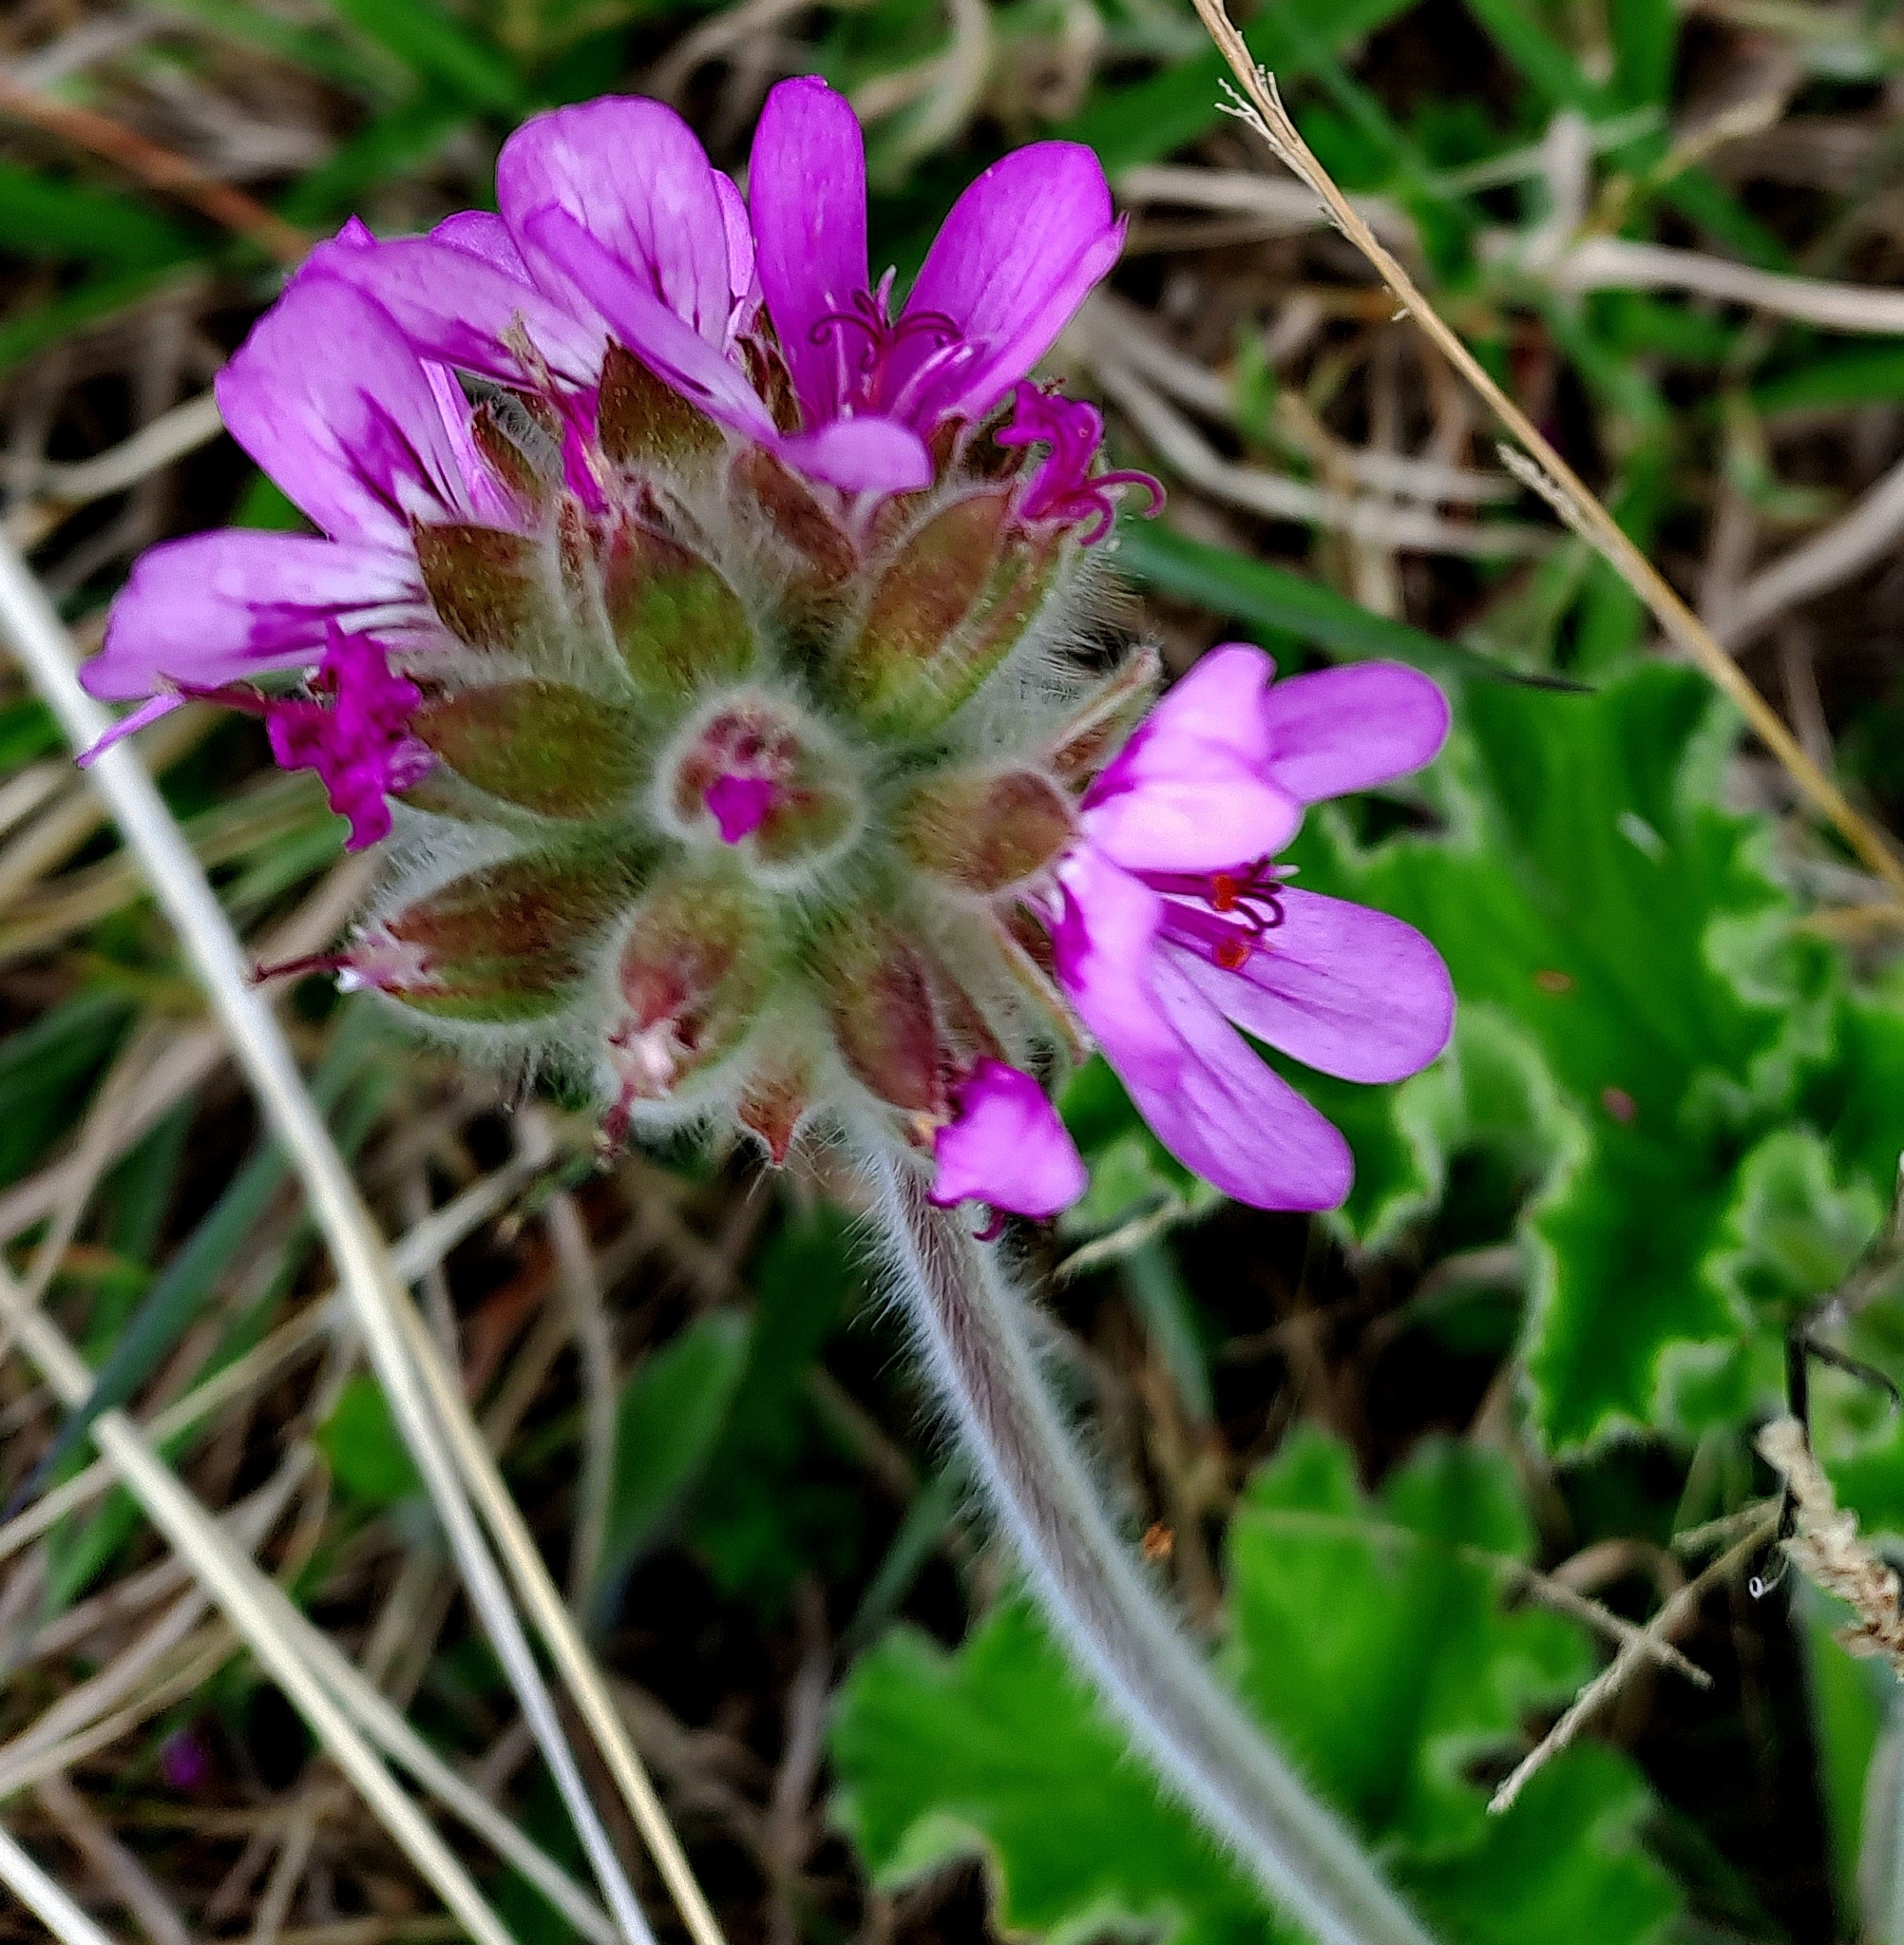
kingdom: Plantae
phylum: Tracheophyta
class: Magnoliopsida
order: Geraniales
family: Geraniaceae
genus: Pelargonium
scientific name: Pelargonium capitatum
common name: Rose scented geranium
